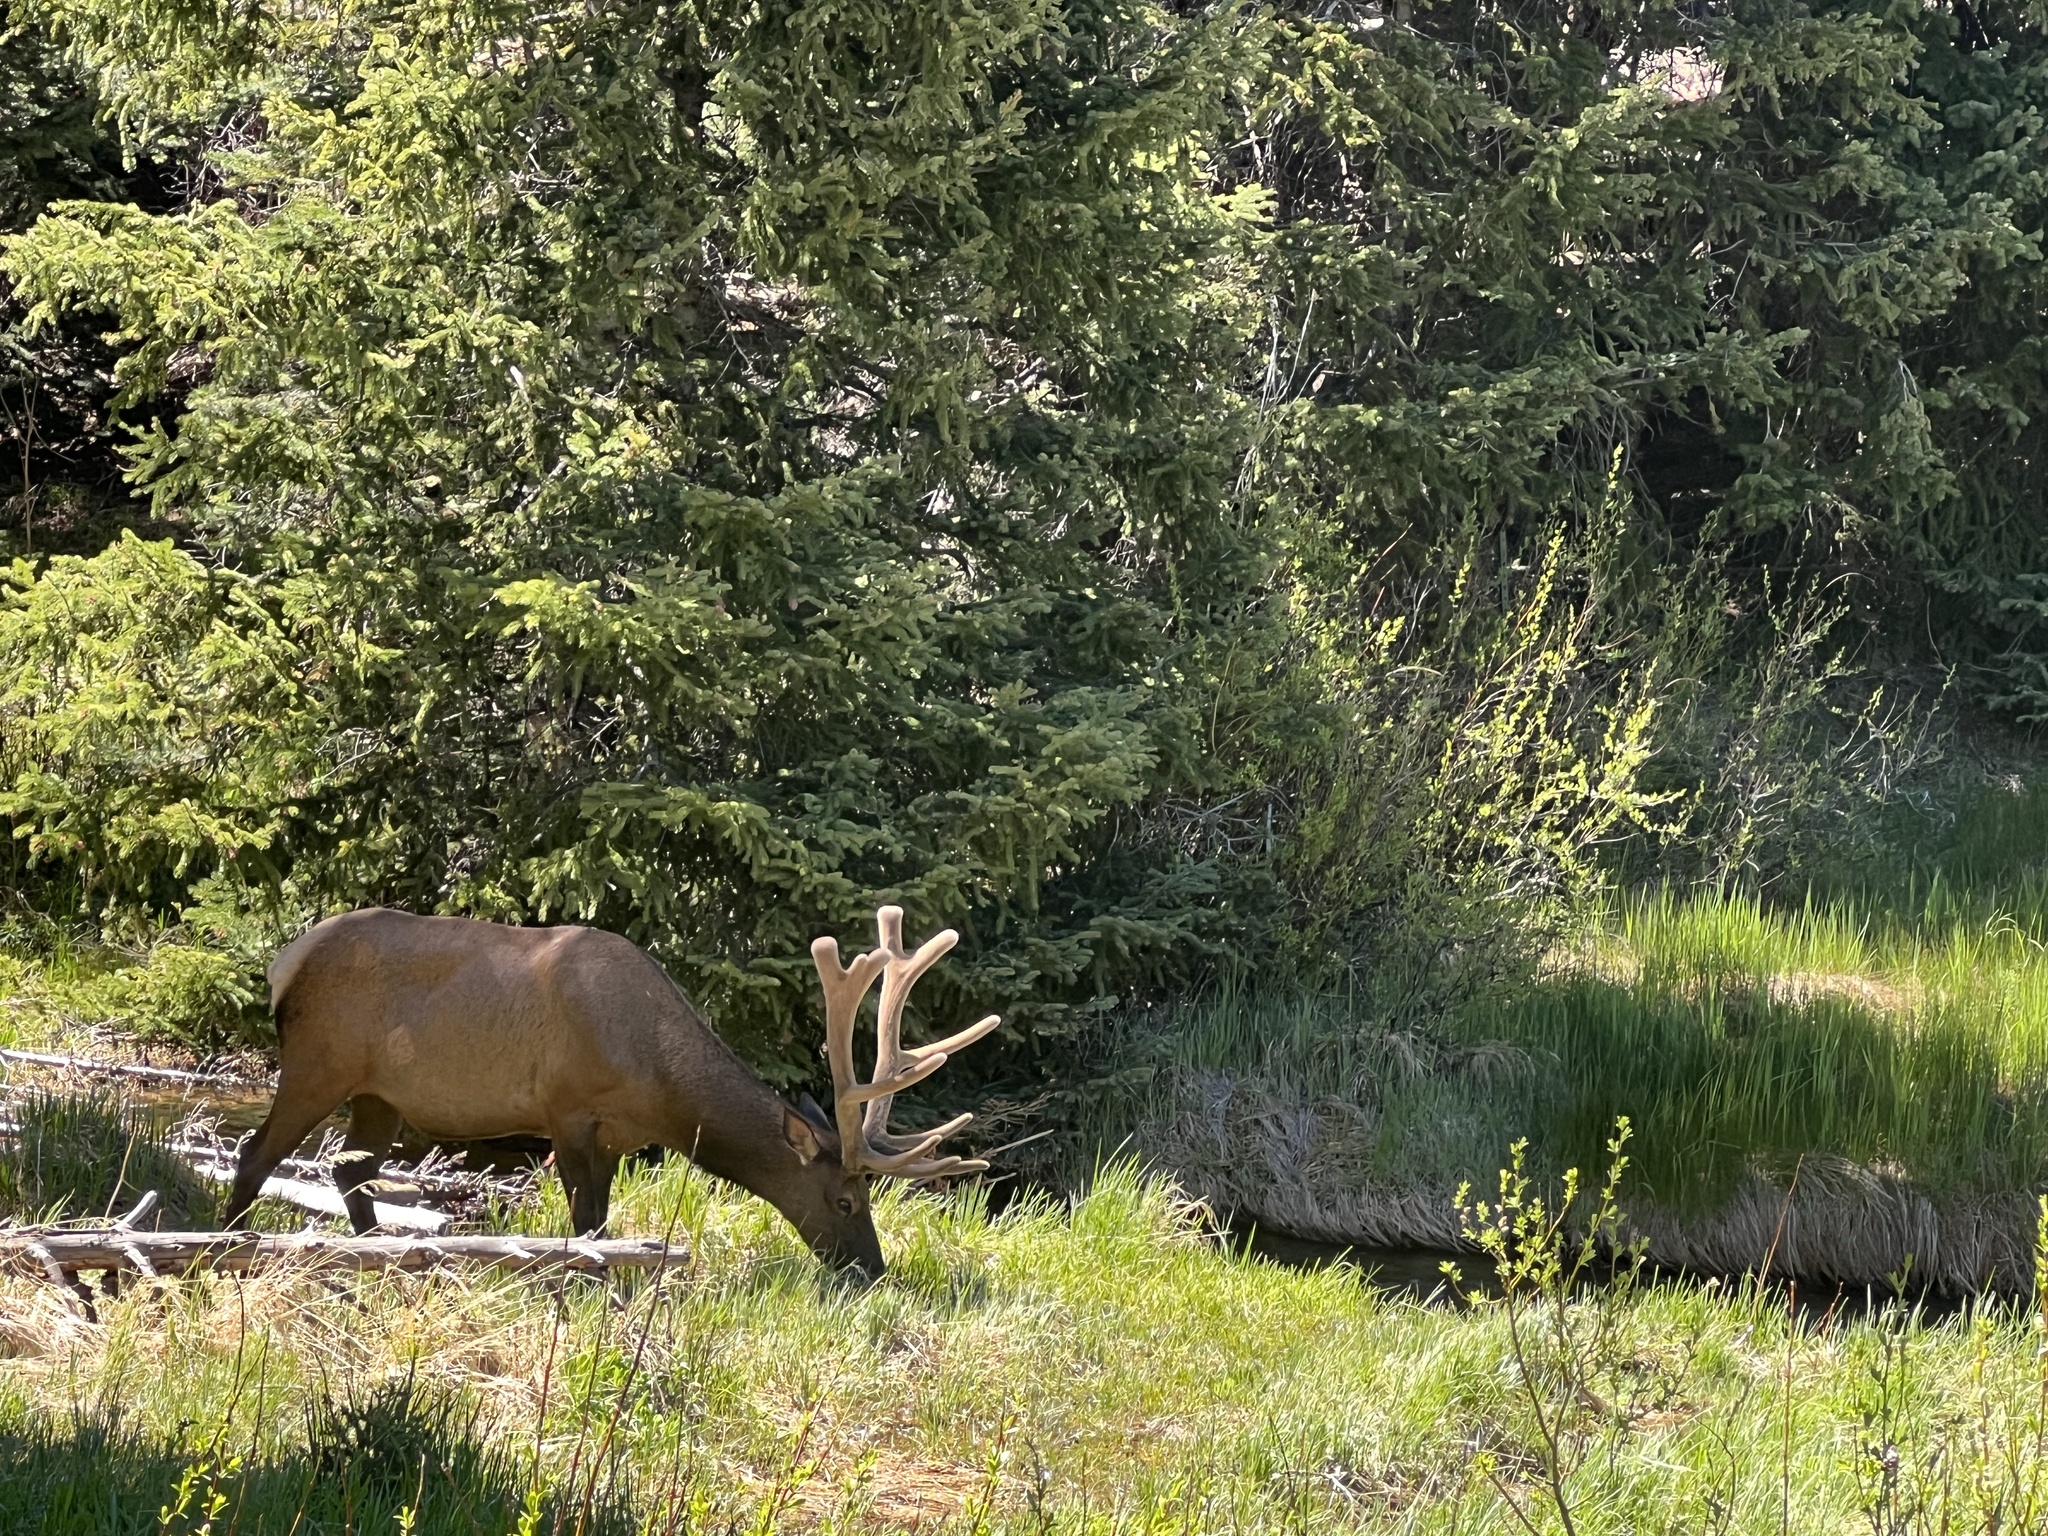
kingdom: Animalia
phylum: Chordata
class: Mammalia
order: Artiodactyla
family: Cervidae
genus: Cervus
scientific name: Cervus elaphus
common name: Red deer
